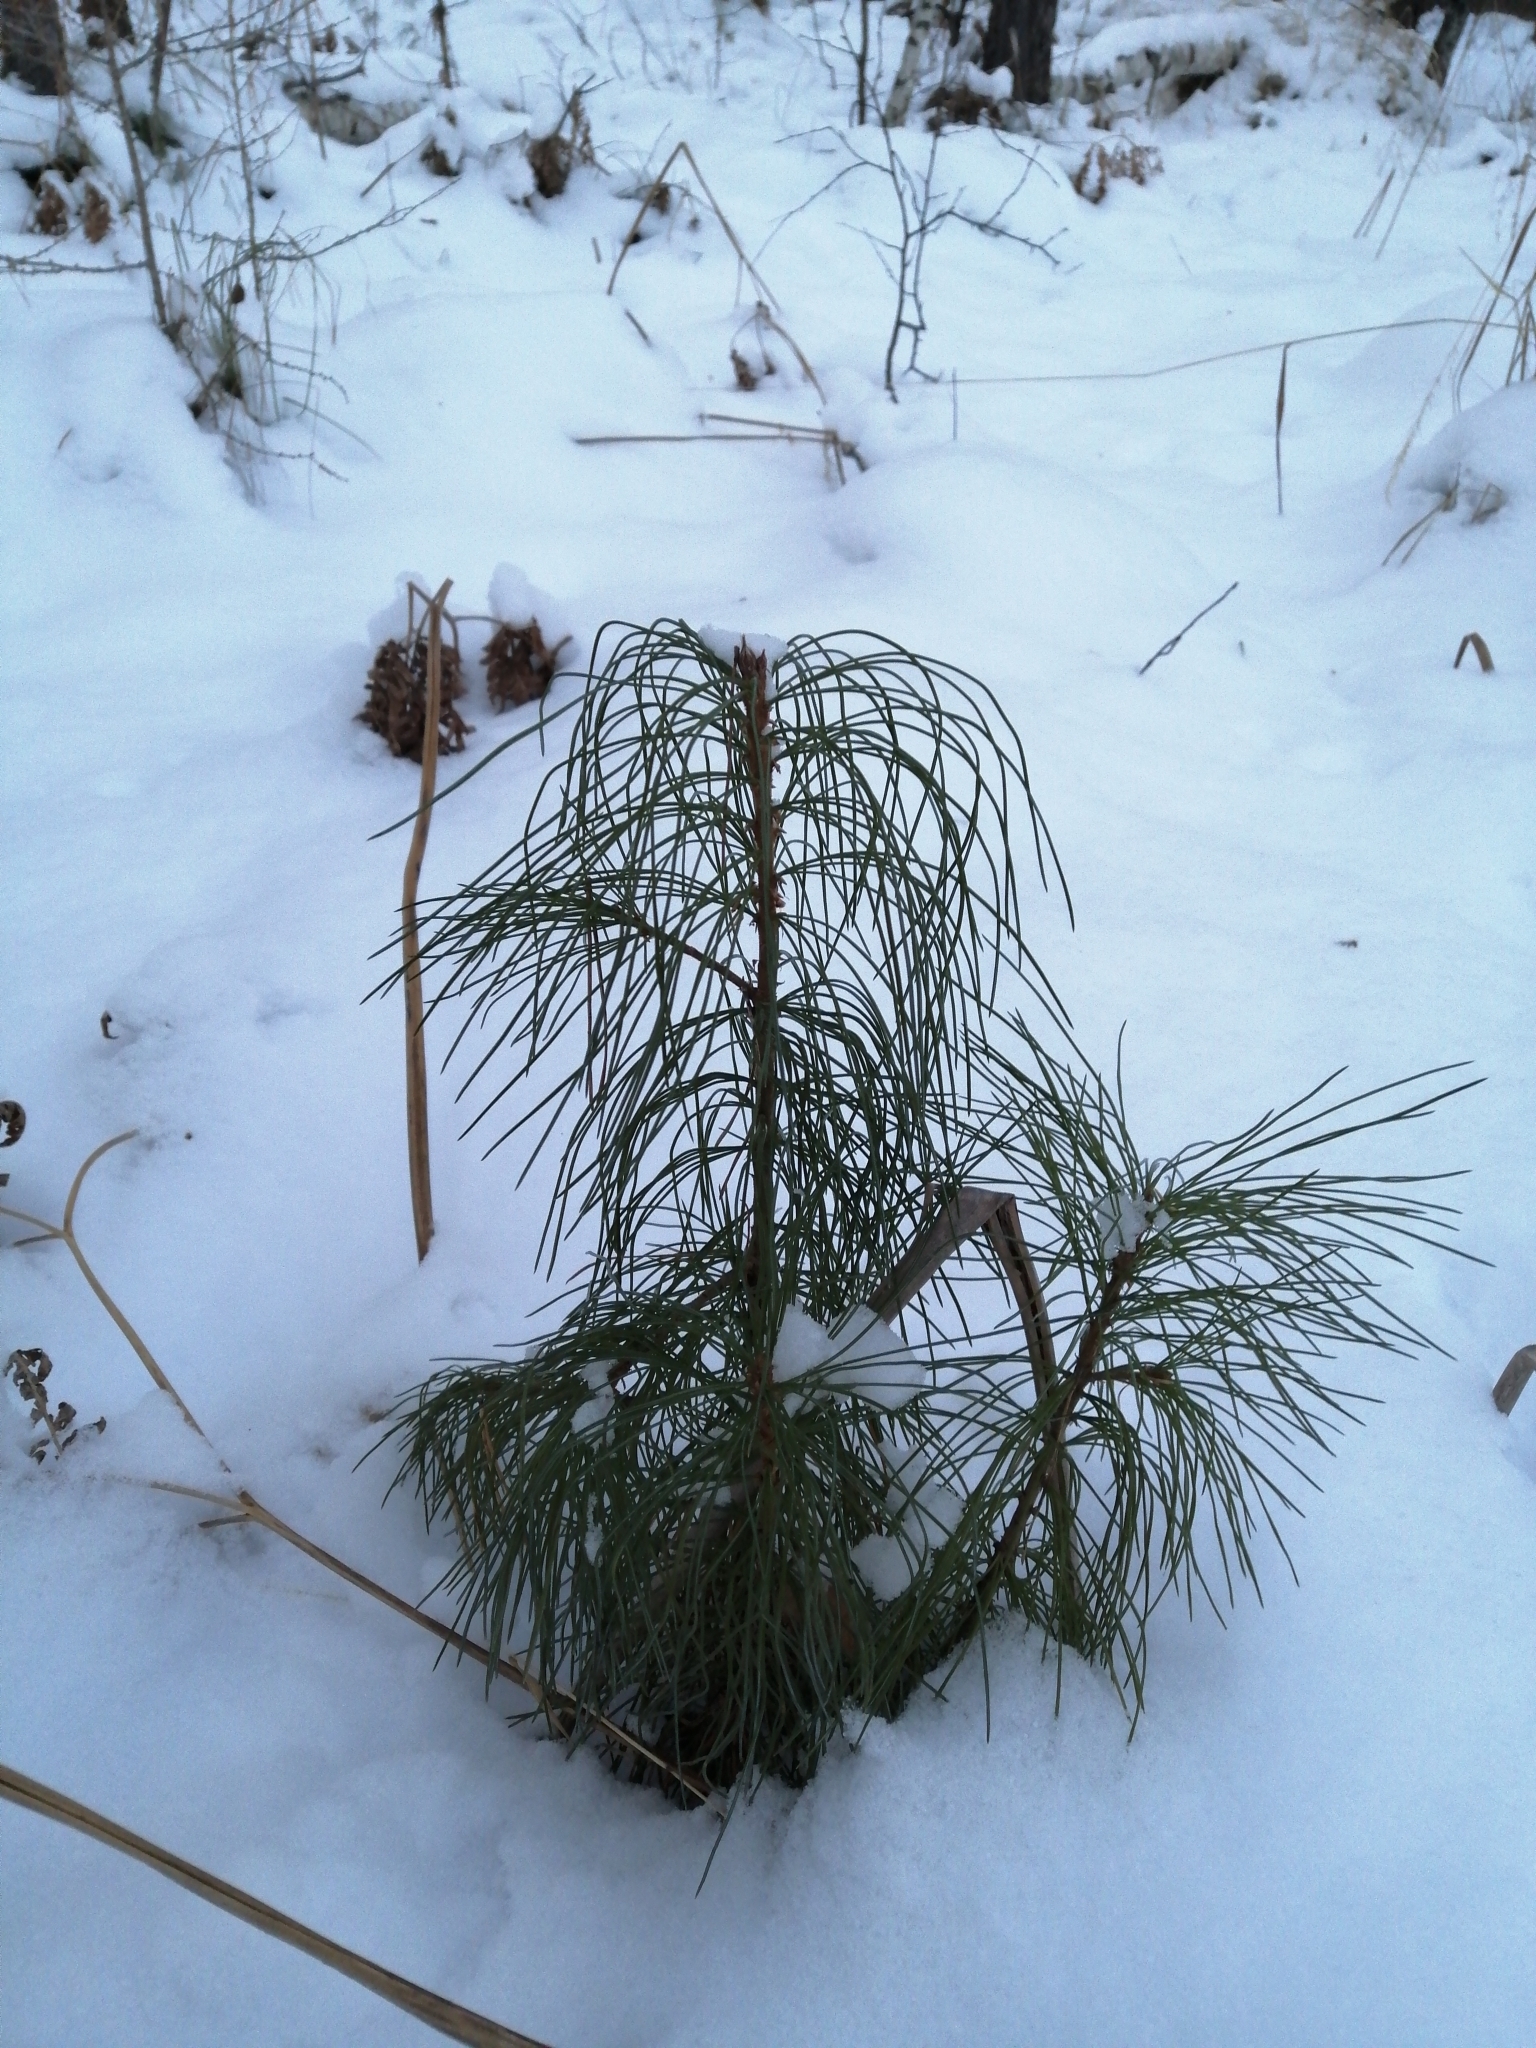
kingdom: Plantae
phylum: Tracheophyta
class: Pinopsida
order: Pinales
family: Pinaceae
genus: Pinus
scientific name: Pinus sibirica
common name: Siberian pine
